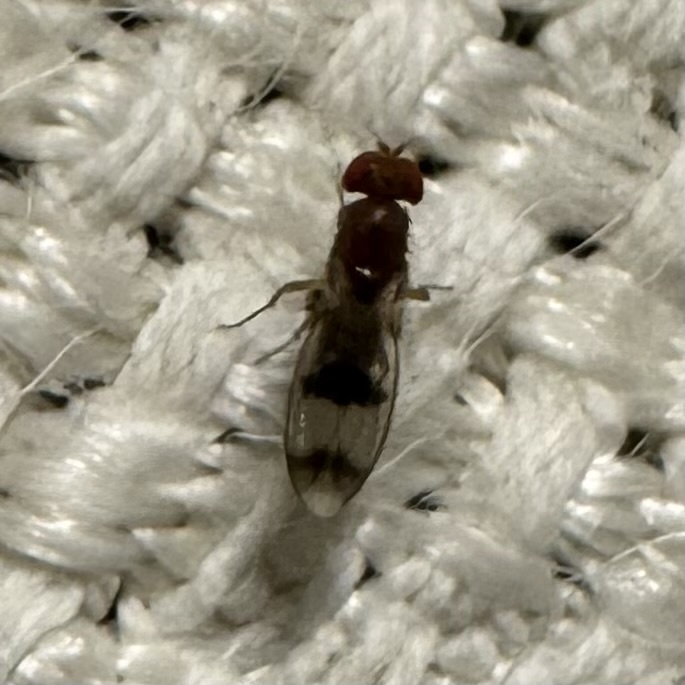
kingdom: Animalia
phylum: Arthropoda
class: Insecta
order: Diptera
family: Drosophilidae
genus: Chymomyza
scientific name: Chymomyza amoena
